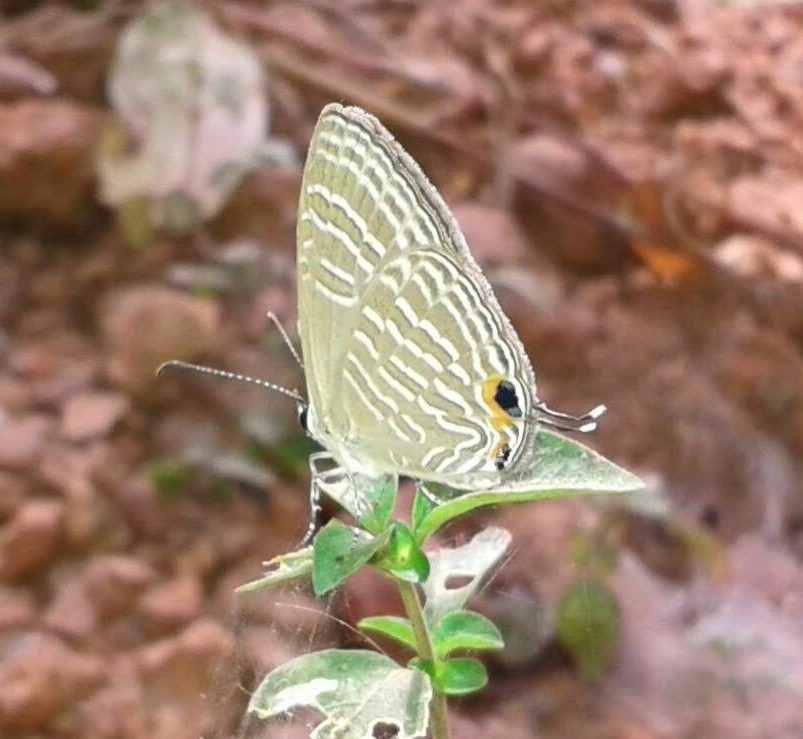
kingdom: Animalia
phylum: Arthropoda
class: Insecta
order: Lepidoptera
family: Lycaenidae
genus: Jamides
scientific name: Jamides celeno
